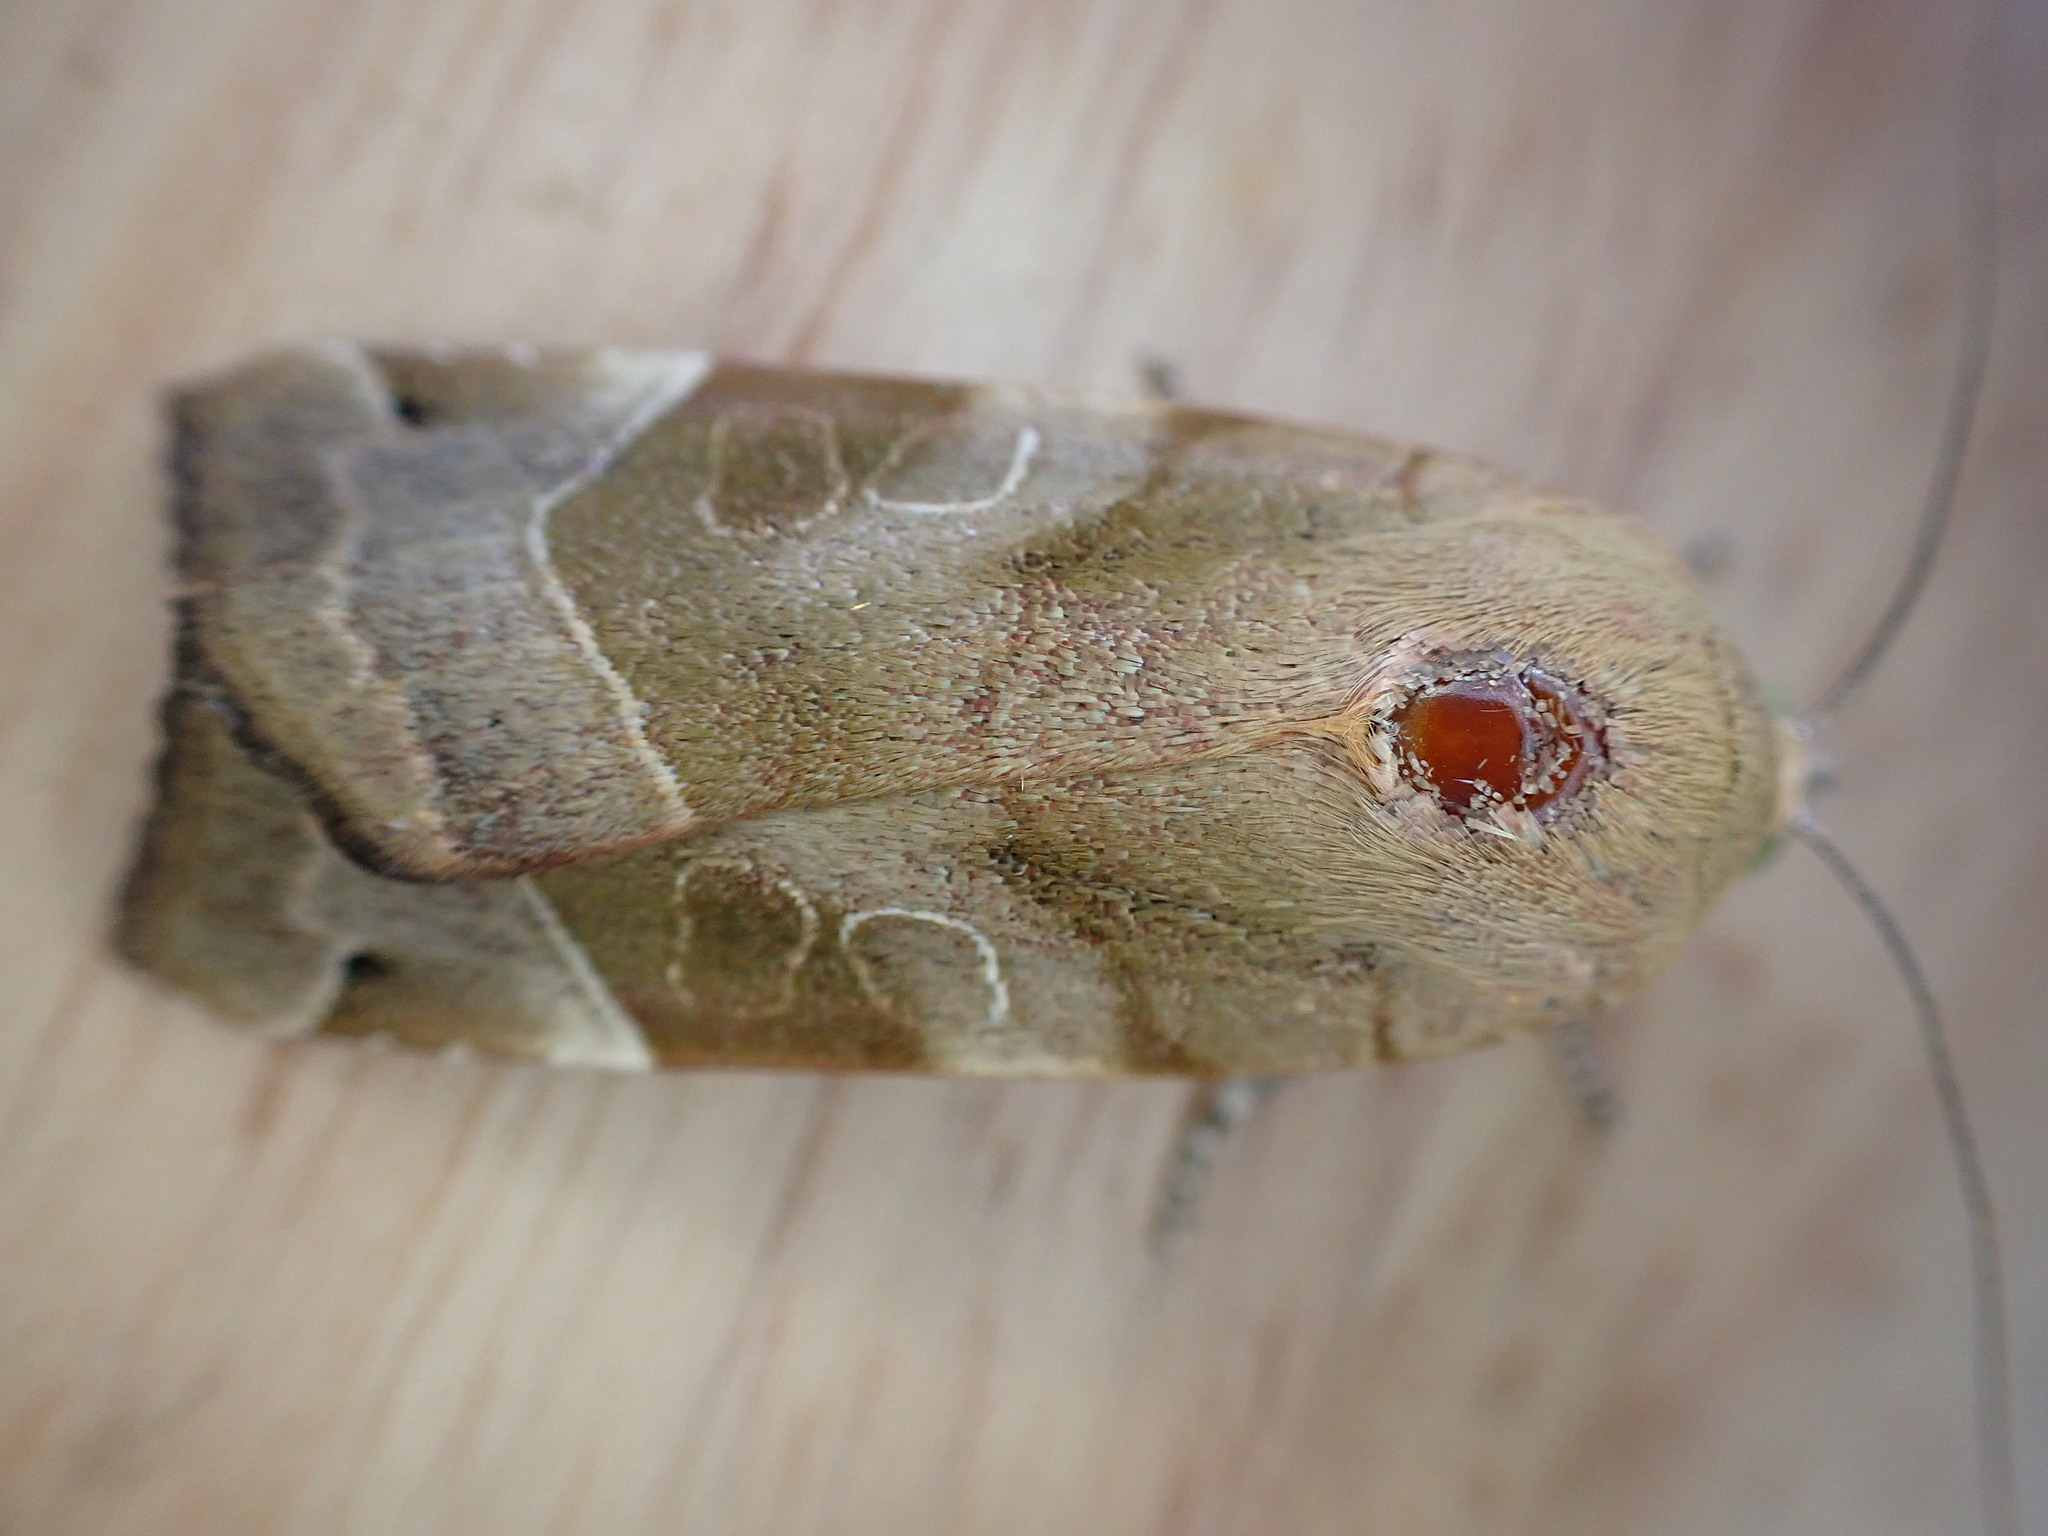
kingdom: Animalia
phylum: Arthropoda
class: Insecta
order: Lepidoptera
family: Noctuidae
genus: Noctua
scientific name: Noctua fimbriata
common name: Broad-bordered yellow underwing
